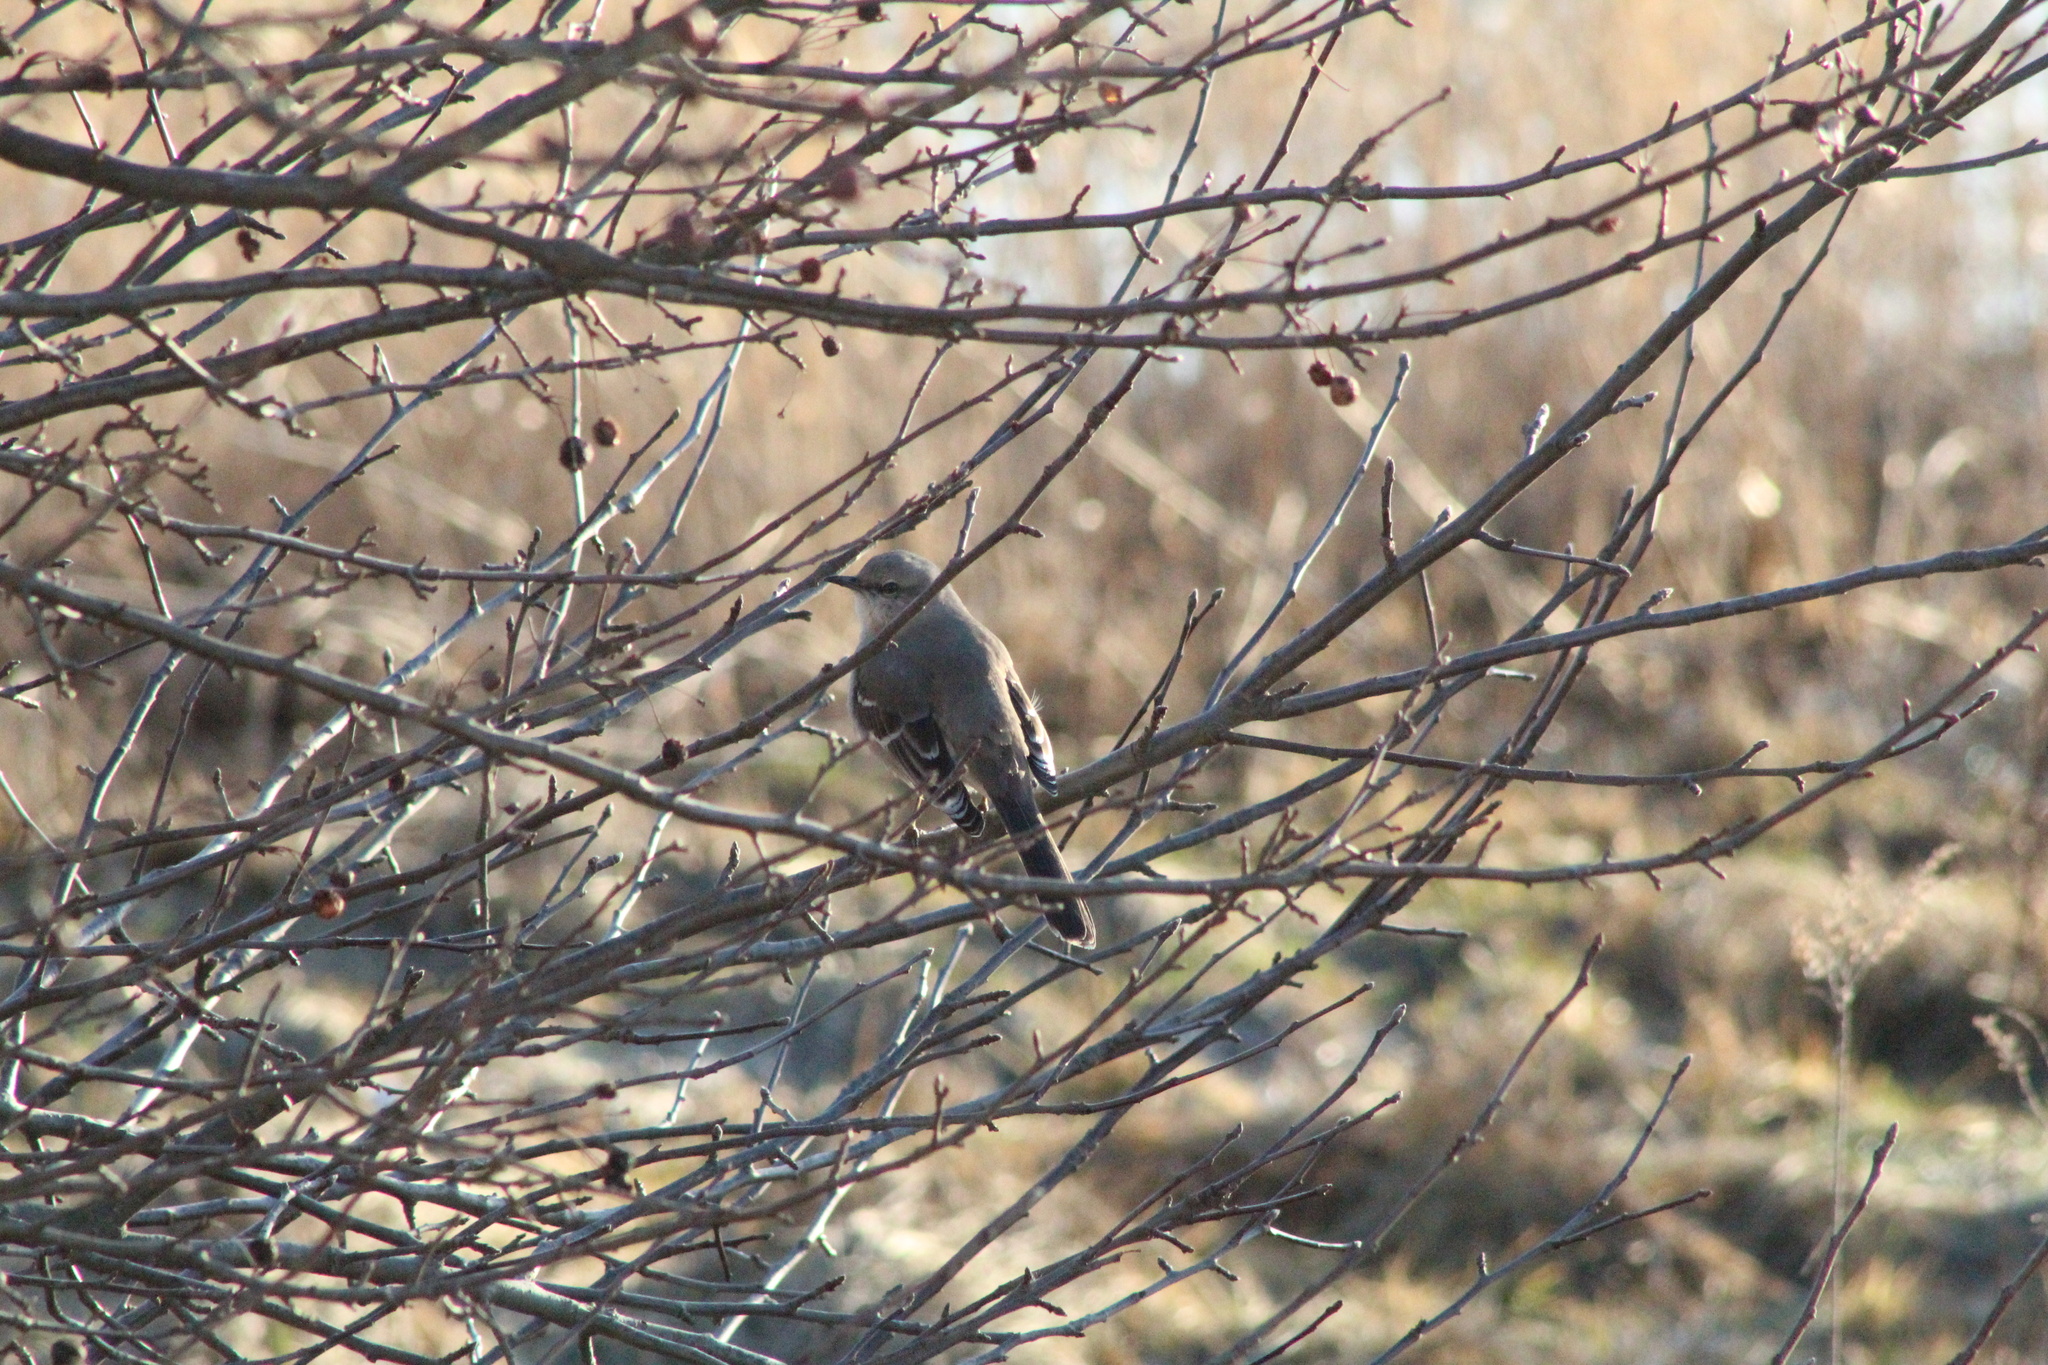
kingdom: Animalia
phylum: Chordata
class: Aves
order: Passeriformes
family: Mimidae
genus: Mimus
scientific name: Mimus polyglottos
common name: Northern mockingbird
